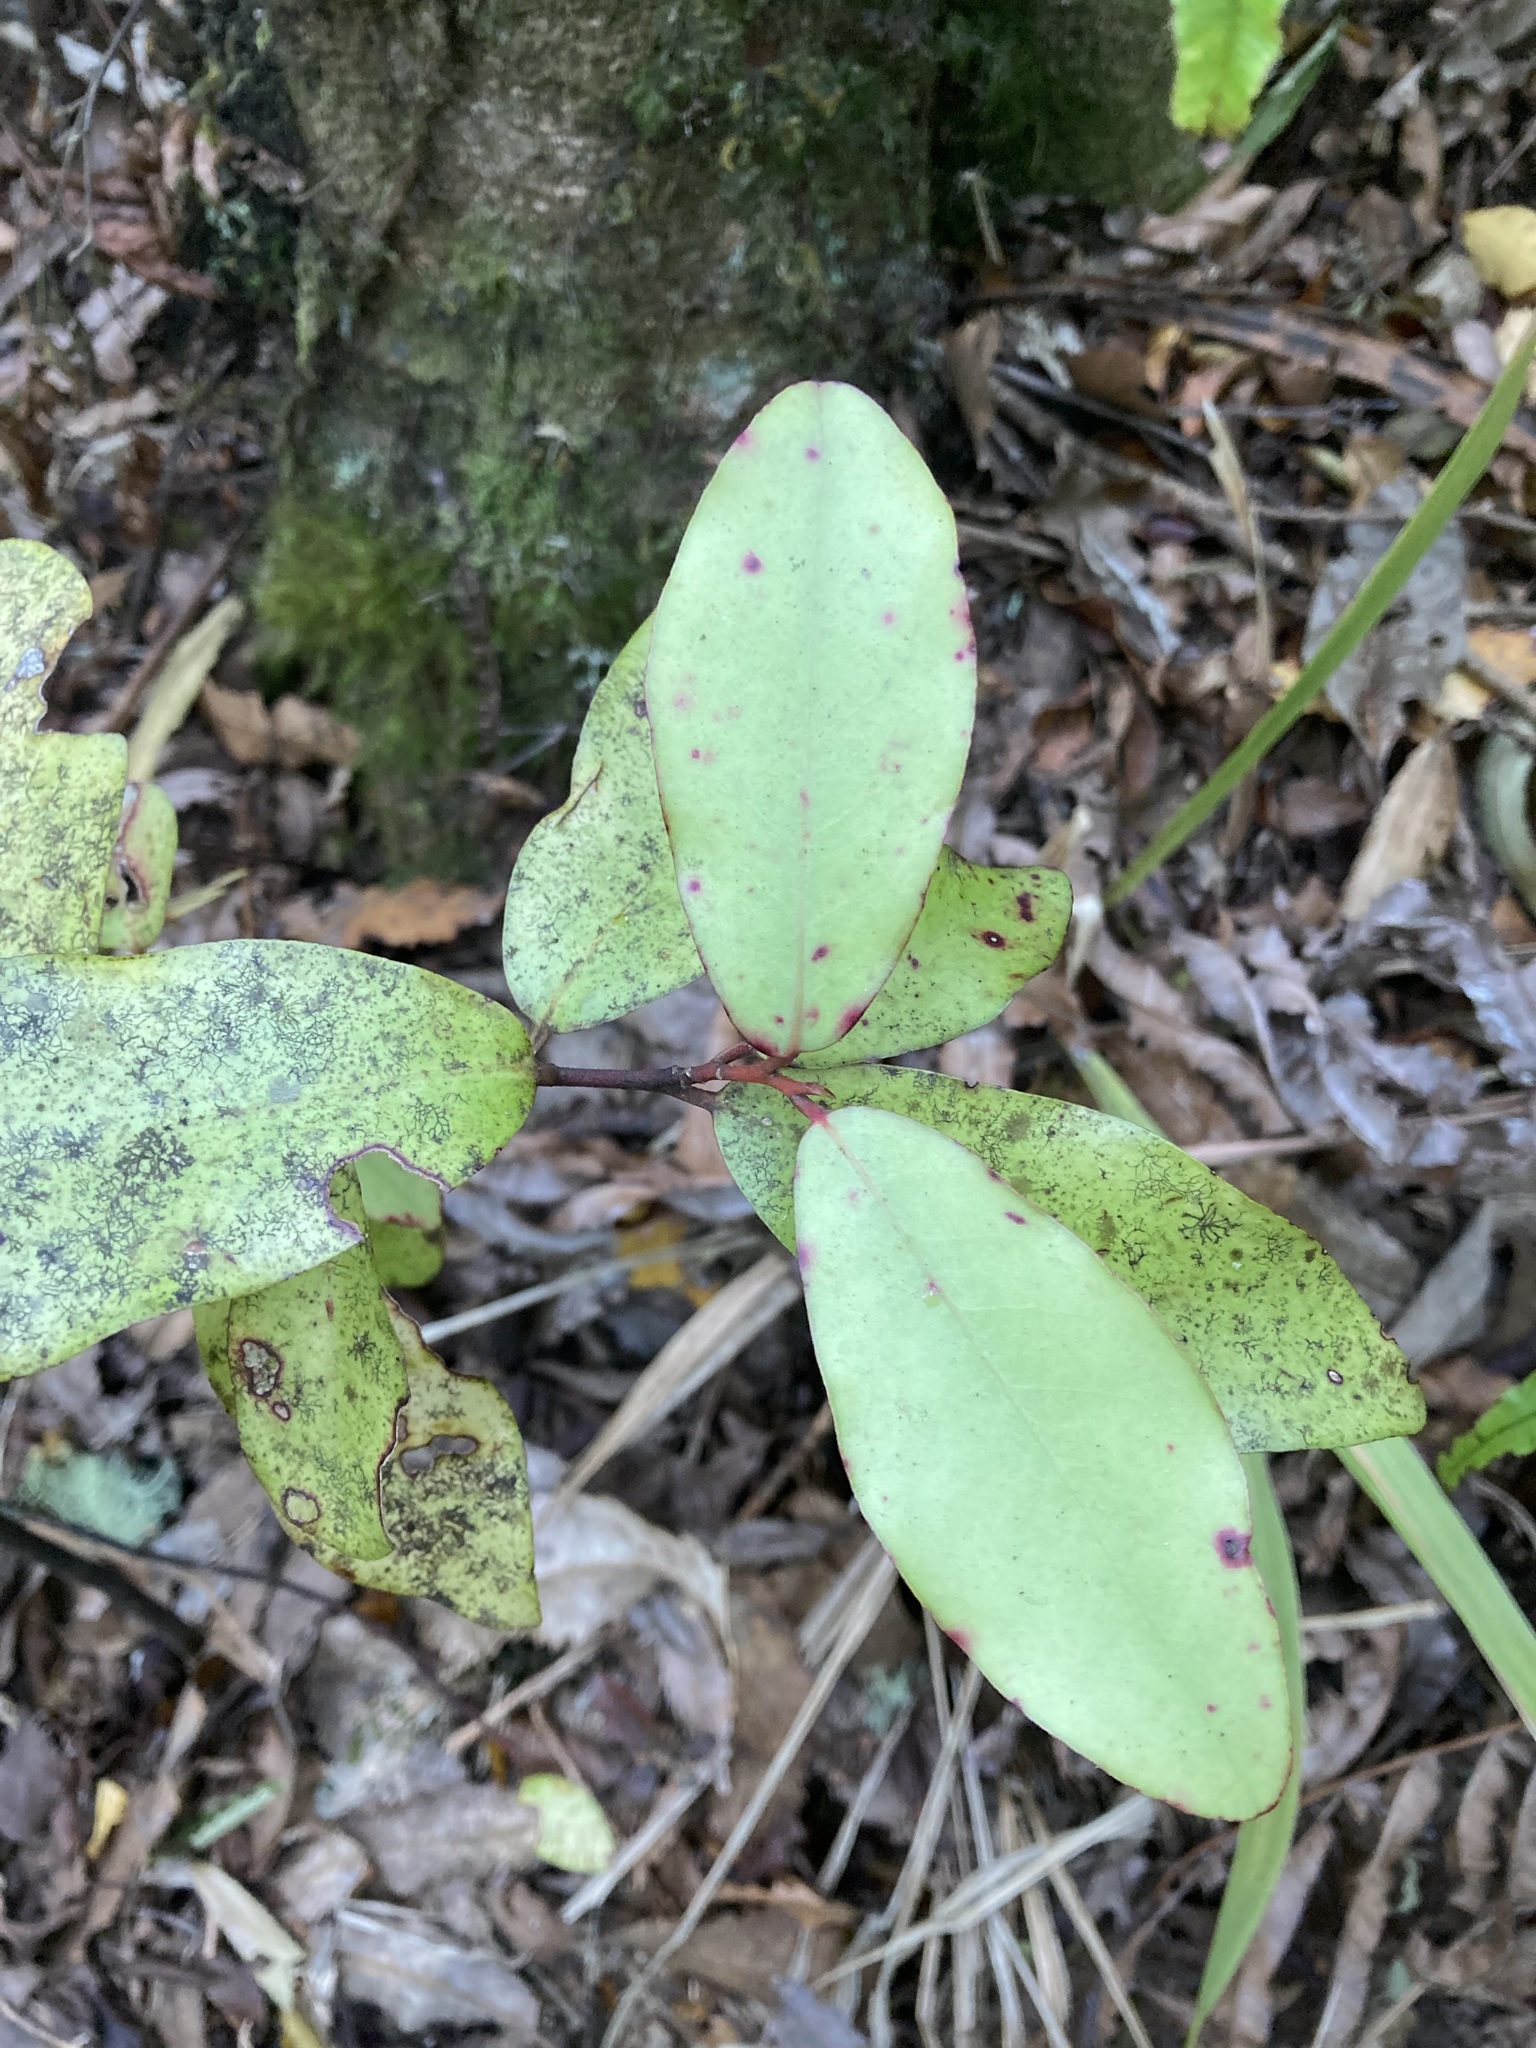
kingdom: Plantae
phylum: Tracheophyta
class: Magnoliopsida
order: Canellales
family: Winteraceae
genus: Pseudowintera
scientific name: Pseudowintera colorata
